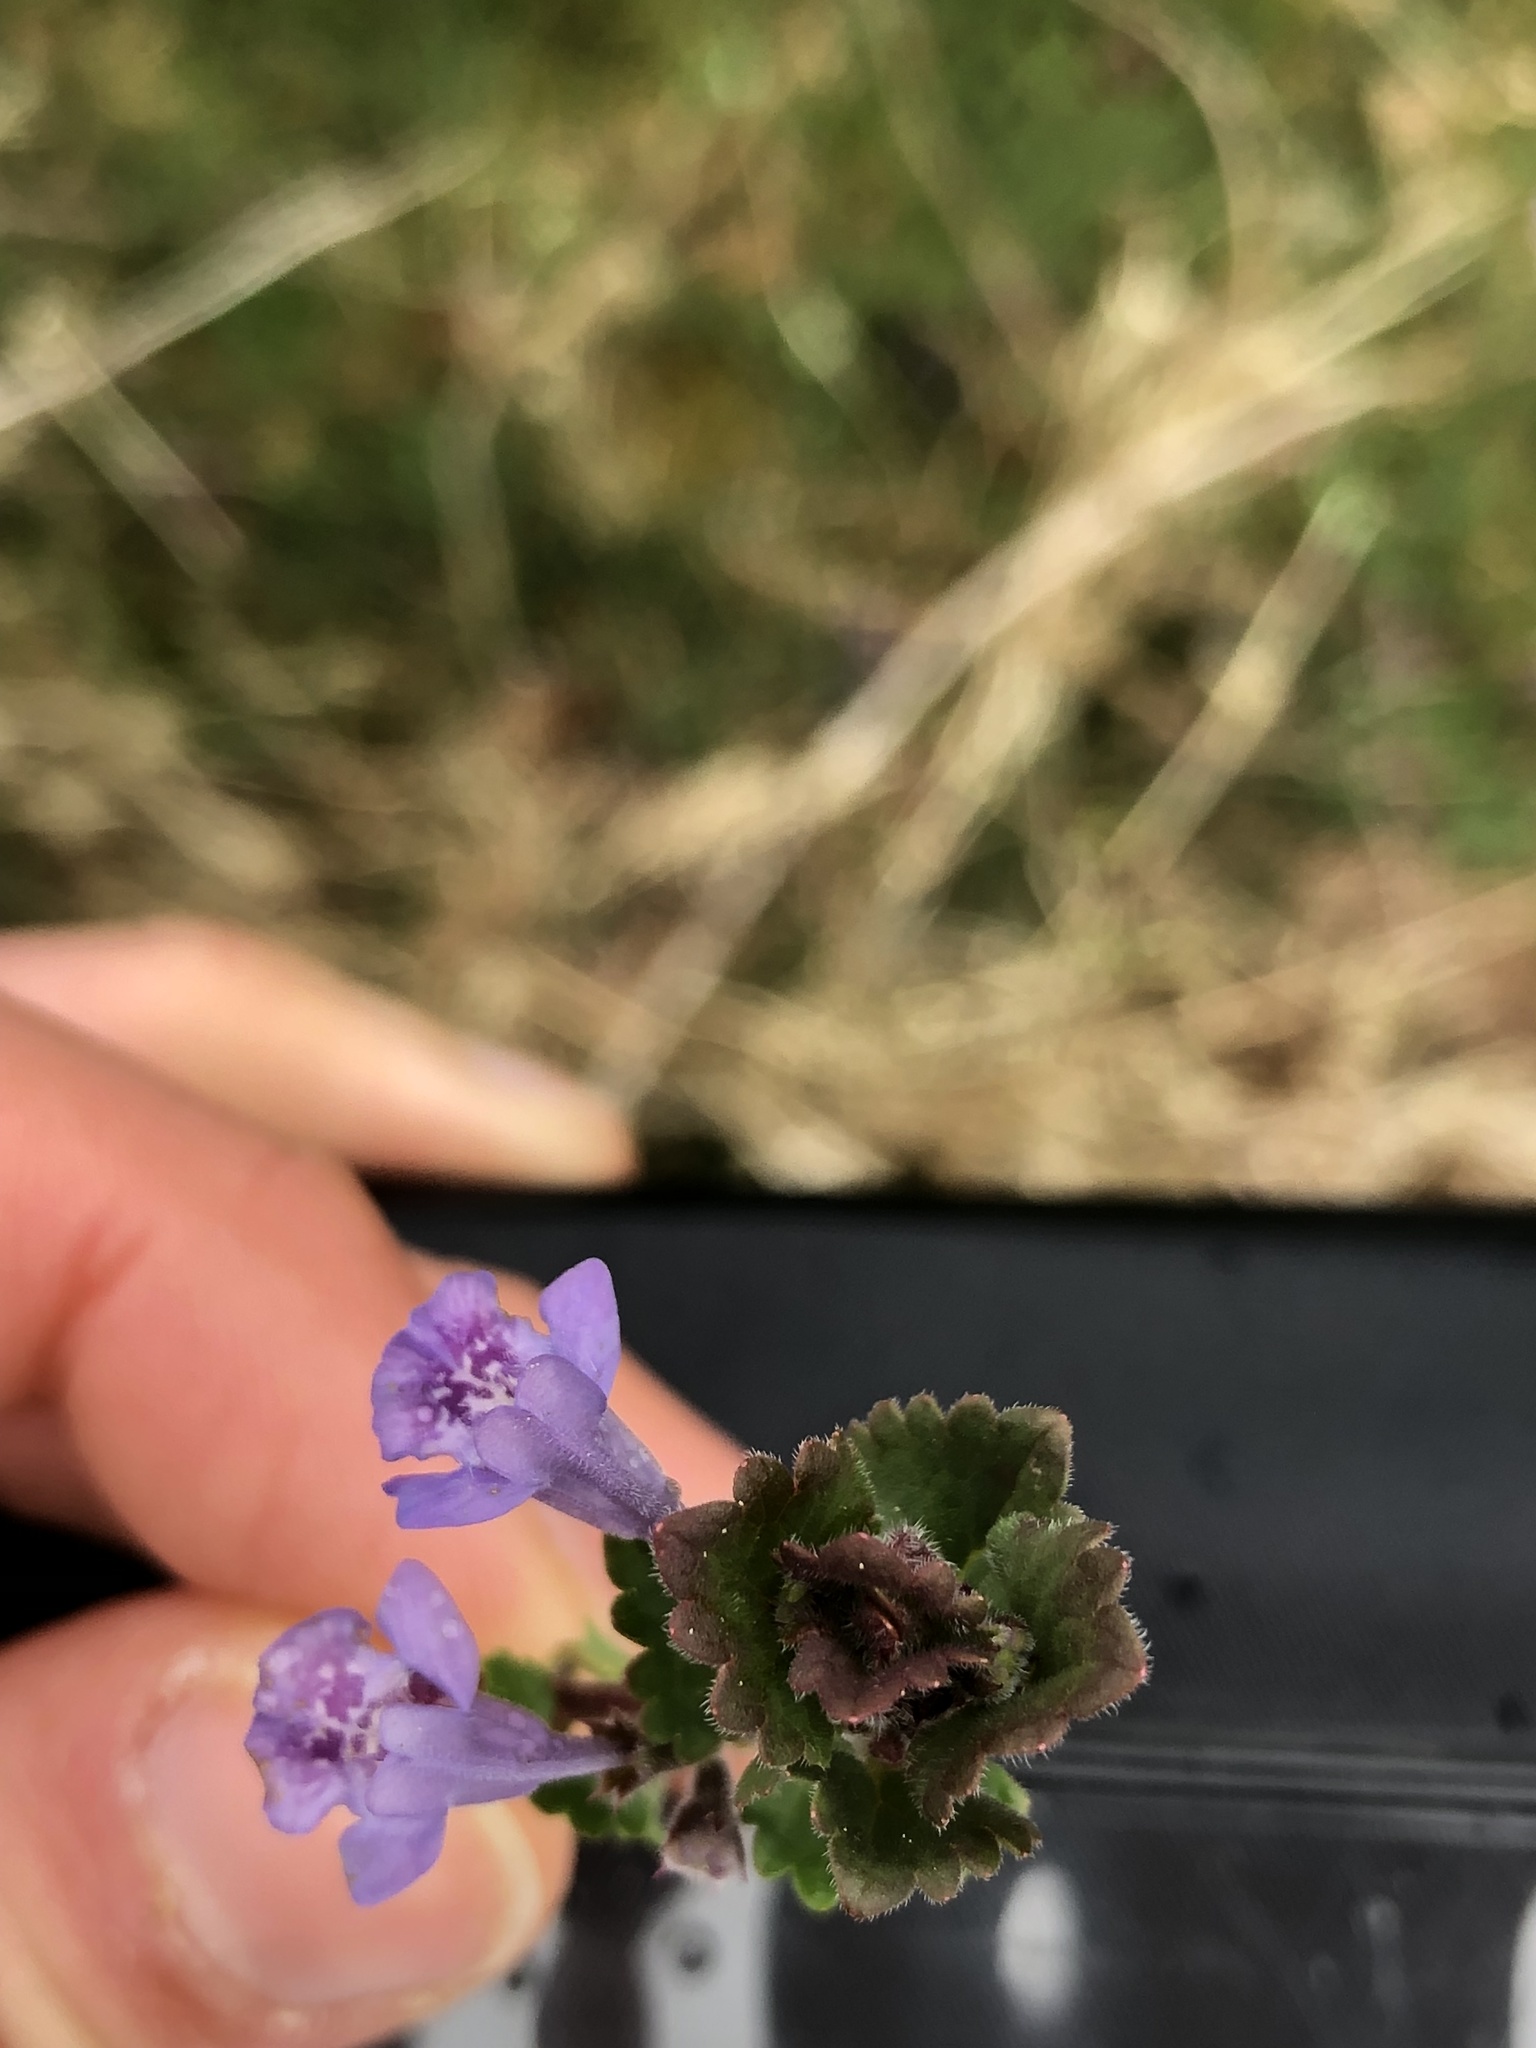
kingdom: Plantae
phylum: Tracheophyta
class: Magnoliopsida
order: Lamiales
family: Lamiaceae
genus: Glechoma
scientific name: Glechoma hederacea
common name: Ground ivy
